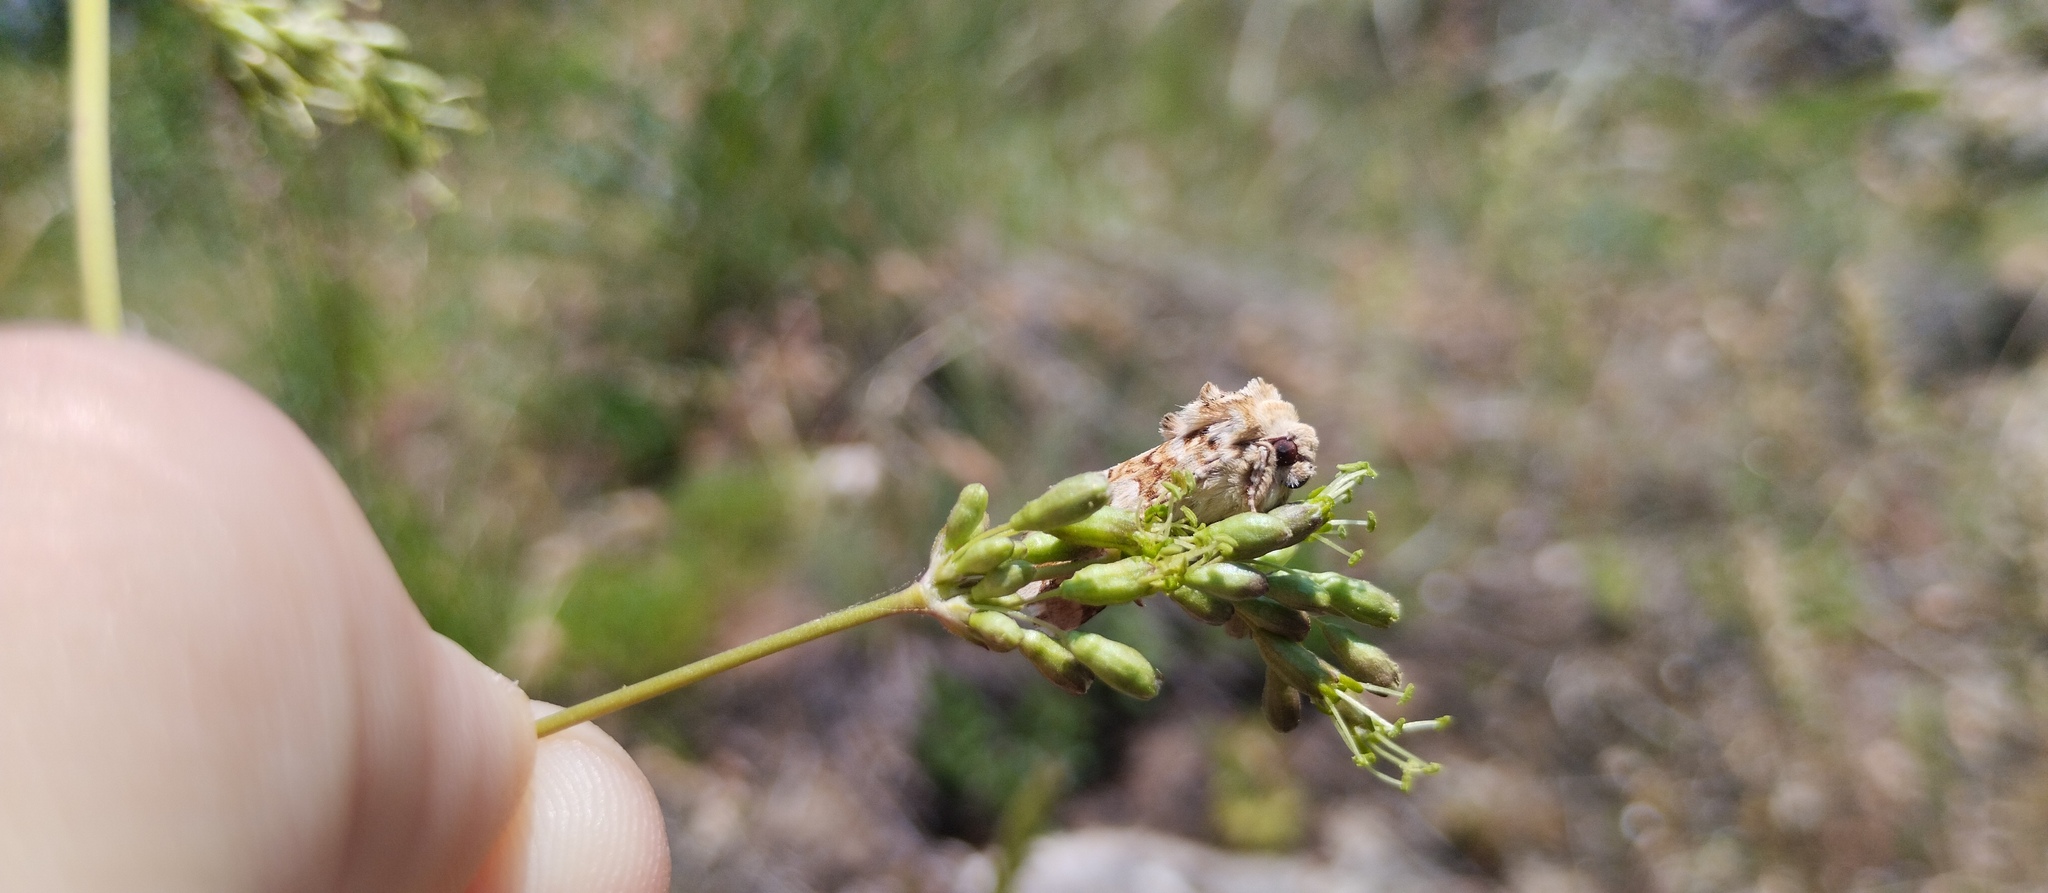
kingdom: Animalia
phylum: Arthropoda
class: Insecta
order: Lepidoptera
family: Noctuidae
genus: Hadena
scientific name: Hadena irregularis
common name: Vipers bugloss
